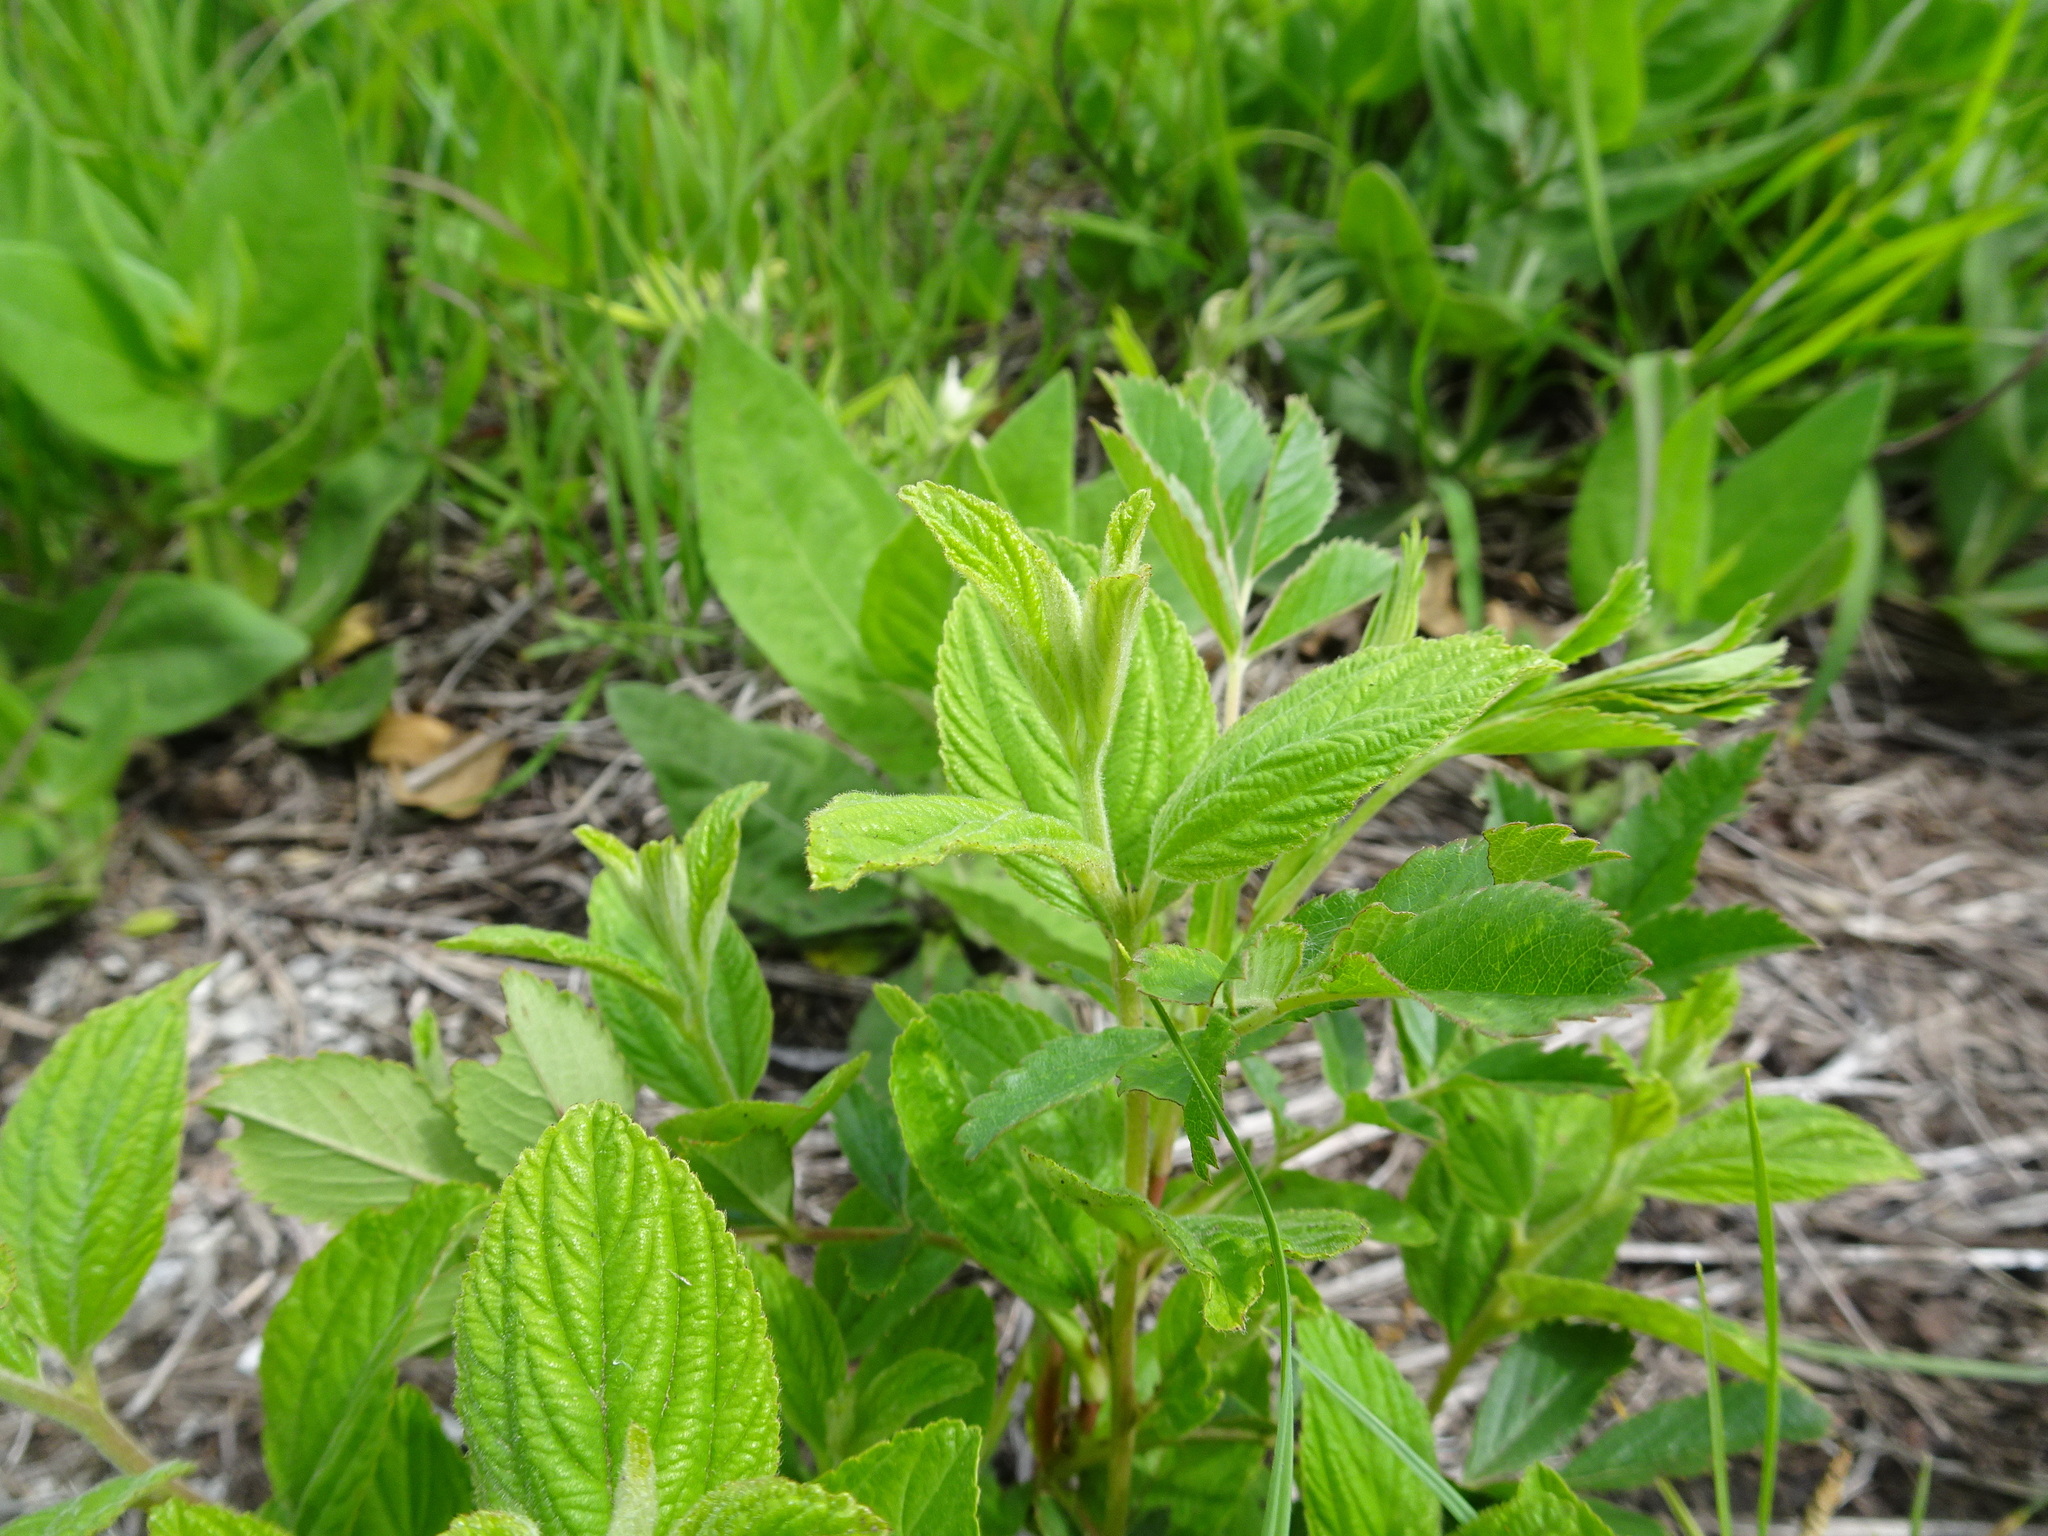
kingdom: Plantae
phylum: Tracheophyta
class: Magnoliopsida
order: Rosales
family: Rhamnaceae
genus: Ceanothus
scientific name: Ceanothus americanus
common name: Redroot
